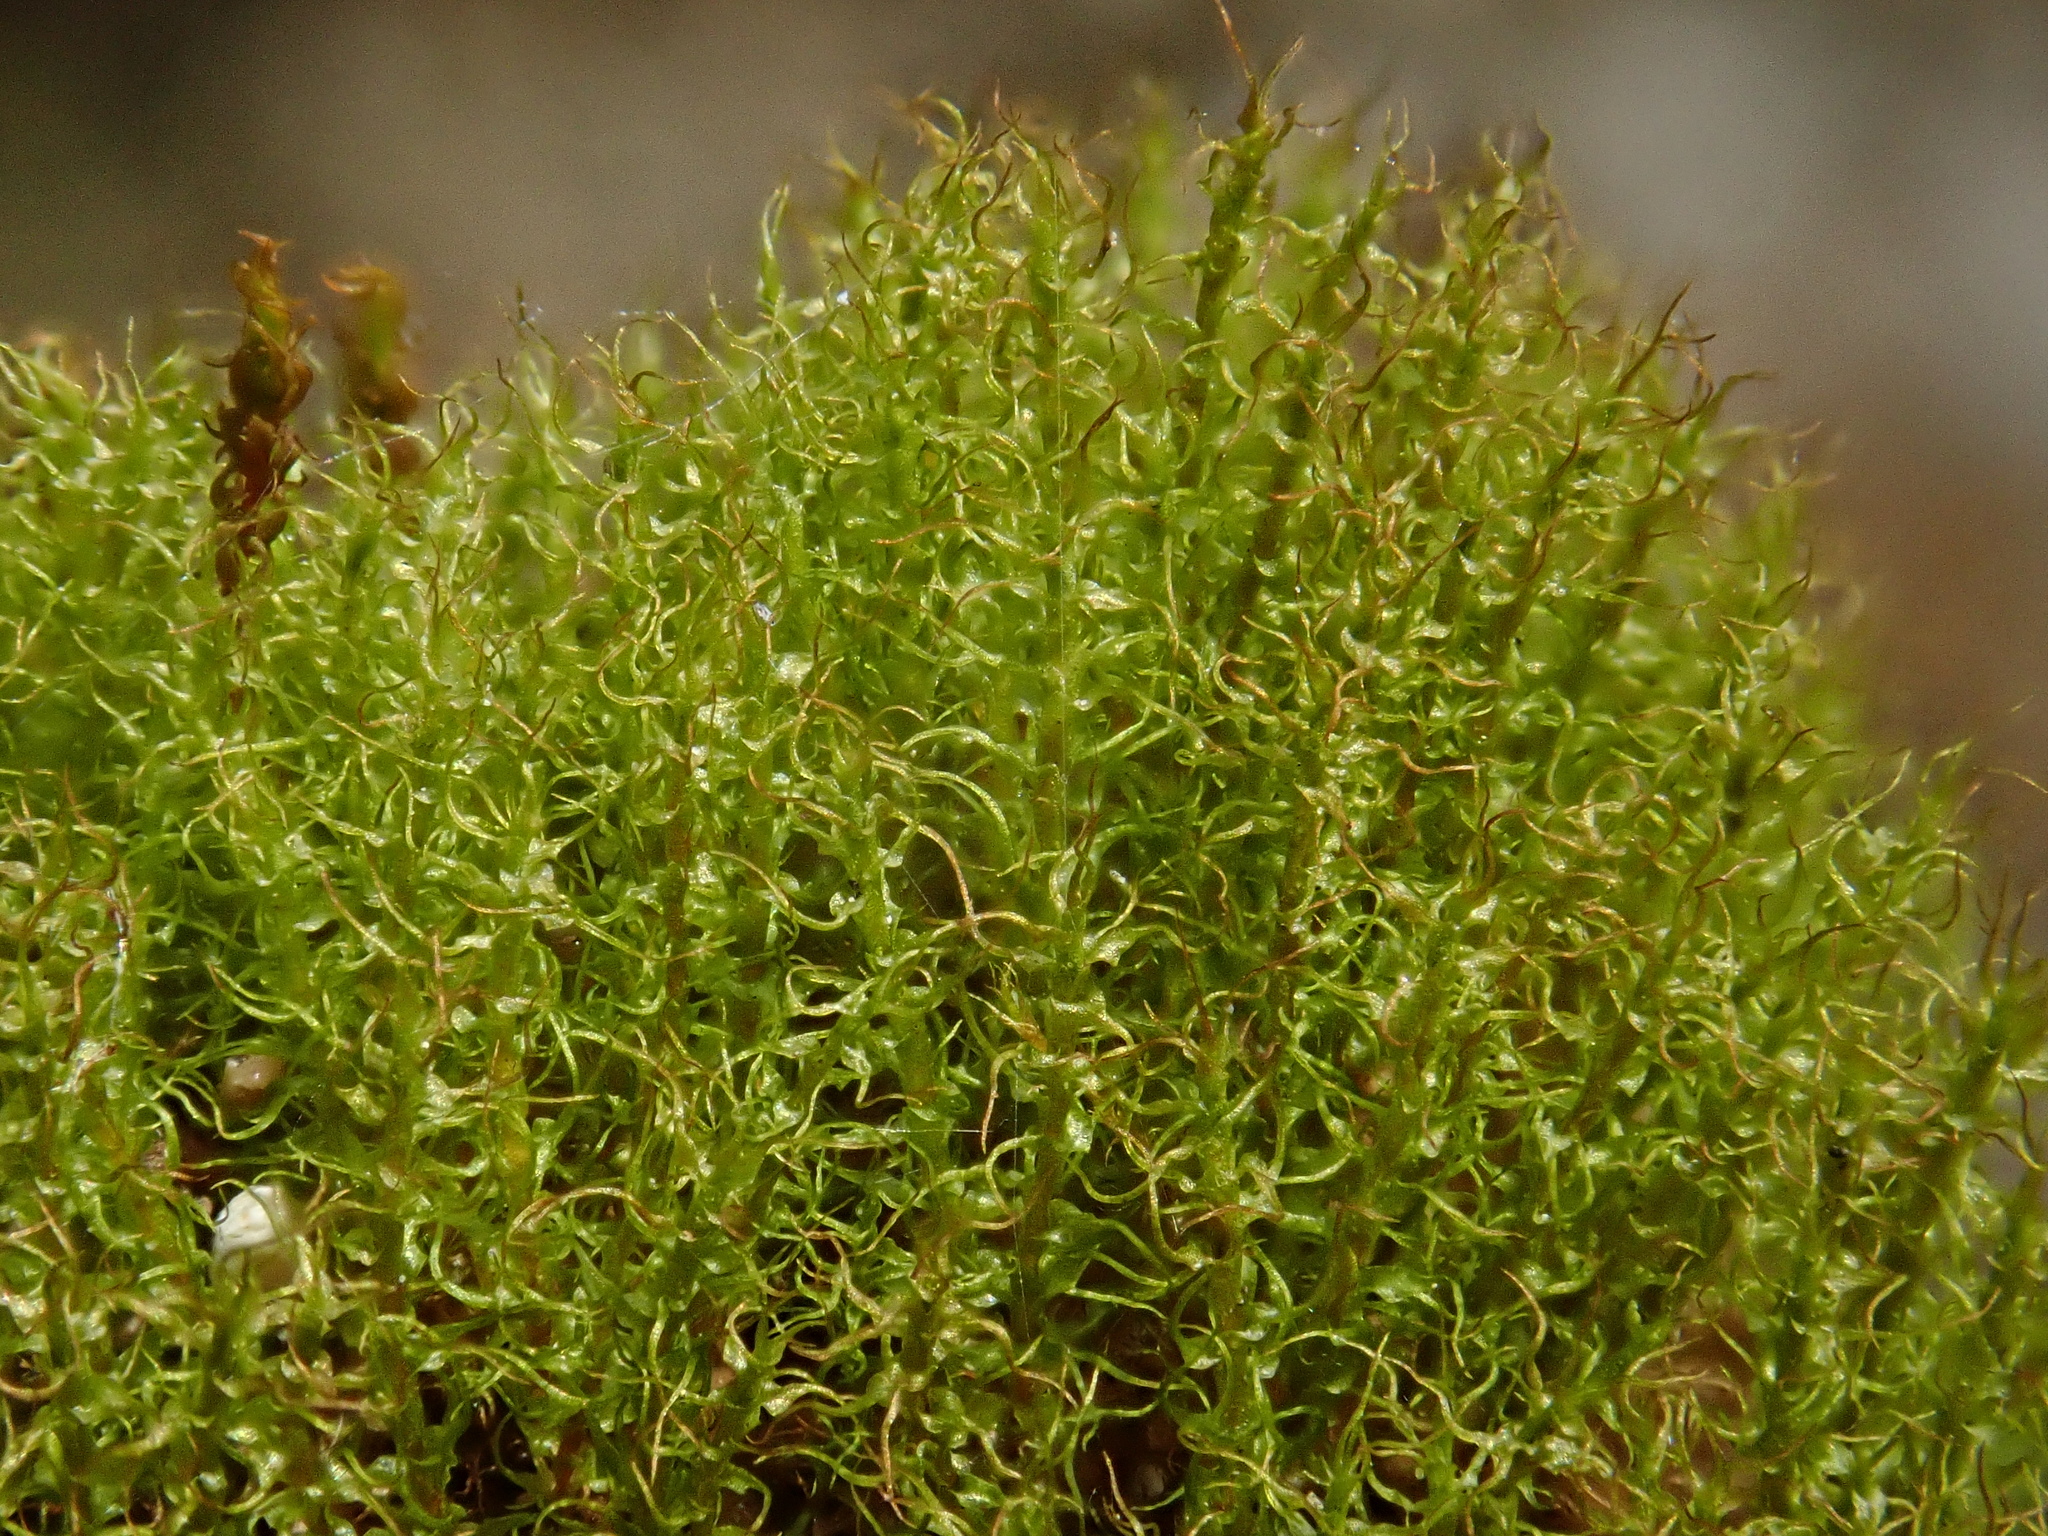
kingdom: Plantae
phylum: Bryophyta
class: Bryopsida
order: Dicranales
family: Dicranellaceae
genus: Dicranella
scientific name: Dicranella schreberiana
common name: Schreber's forklet moss
